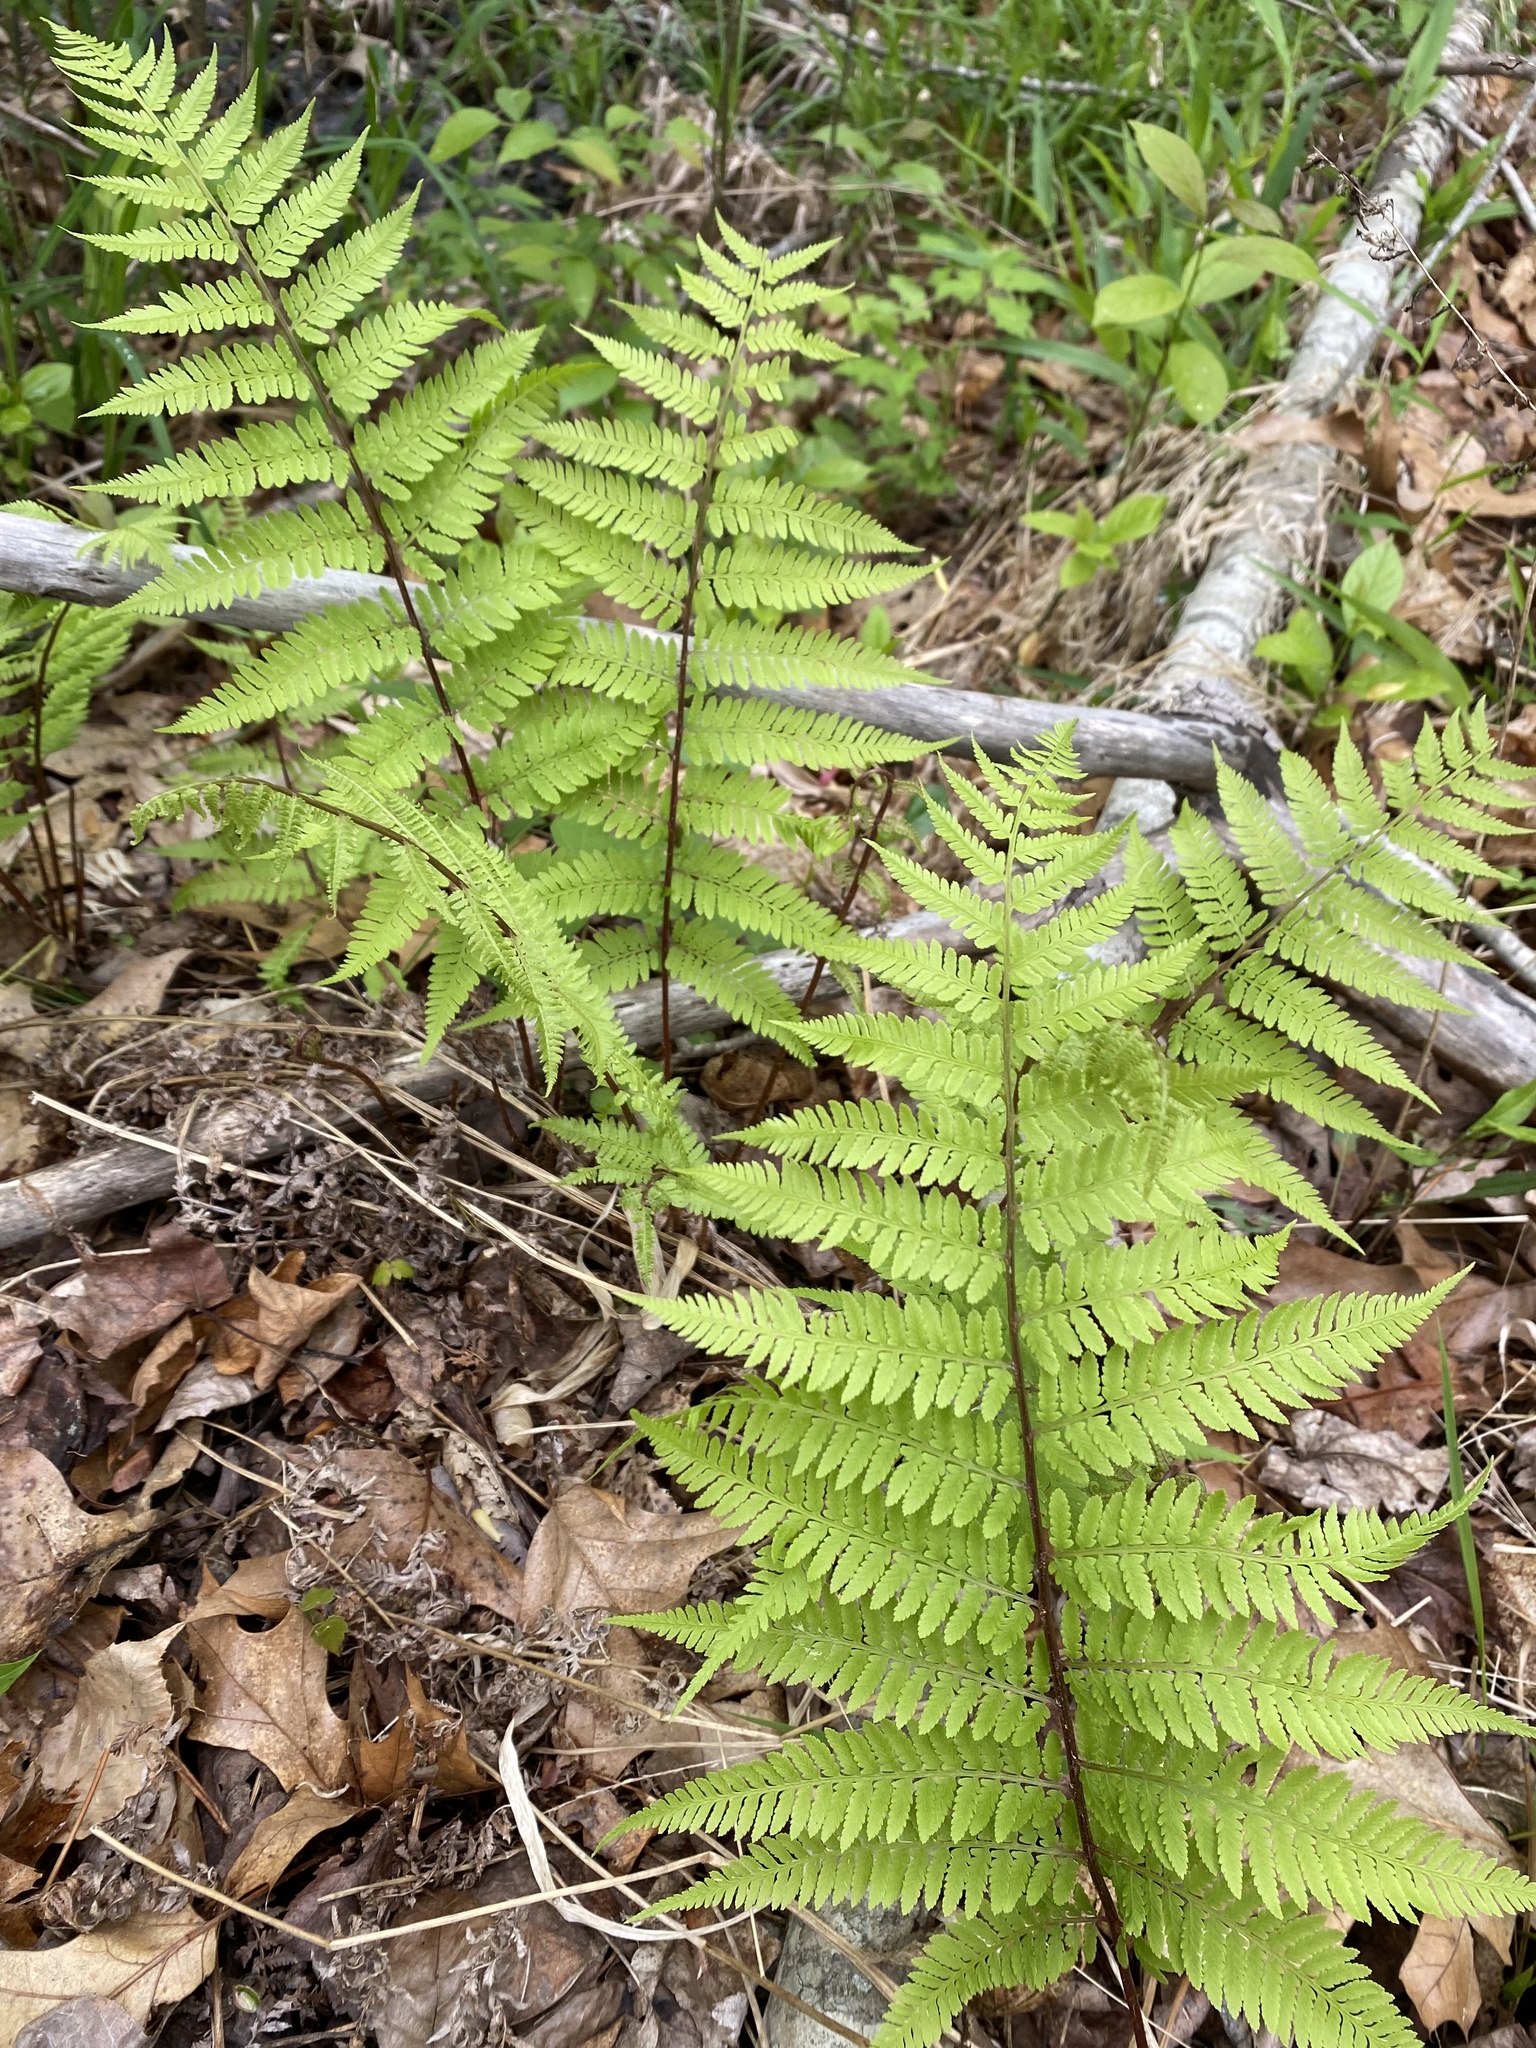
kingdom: Plantae
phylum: Tracheophyta
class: Polypodiopsida
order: Polypodiales
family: Athyriaceae
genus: Athyrium
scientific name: Athyrium asplenioides
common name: Southern lady fern
